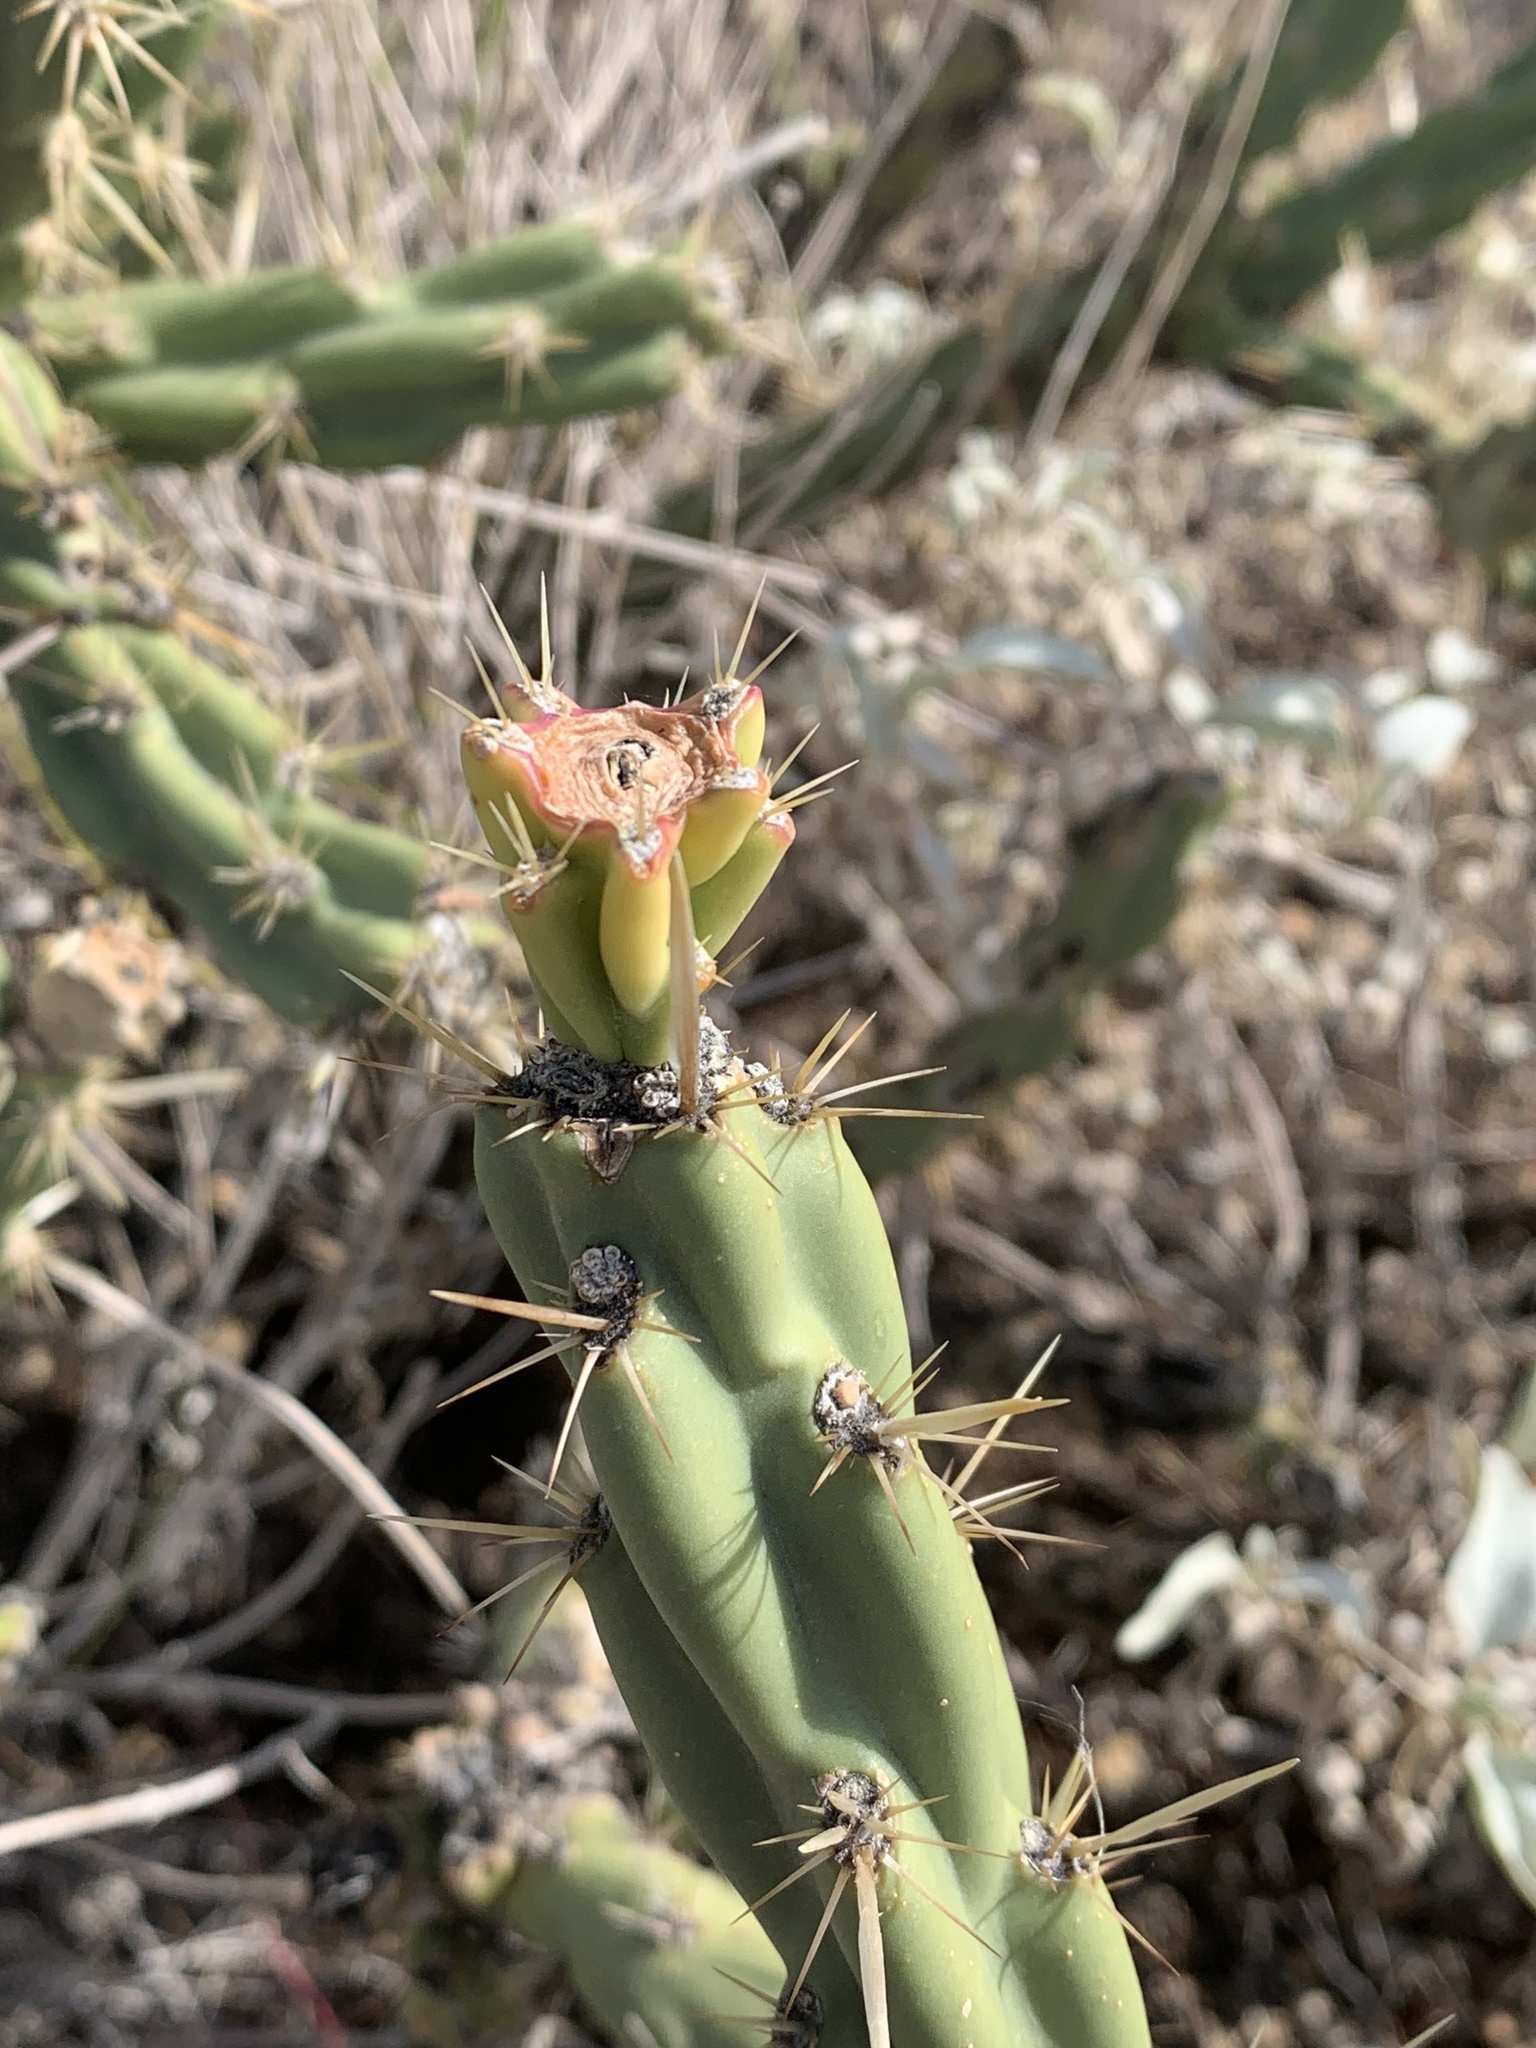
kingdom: Plantae
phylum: Tracheophyta
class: Magnoliopsida
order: Caryophyllales
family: Cactaceae
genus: Cylindropuntia
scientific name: Cylindropuntia acanthocarpa
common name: Buckhorn cholla
